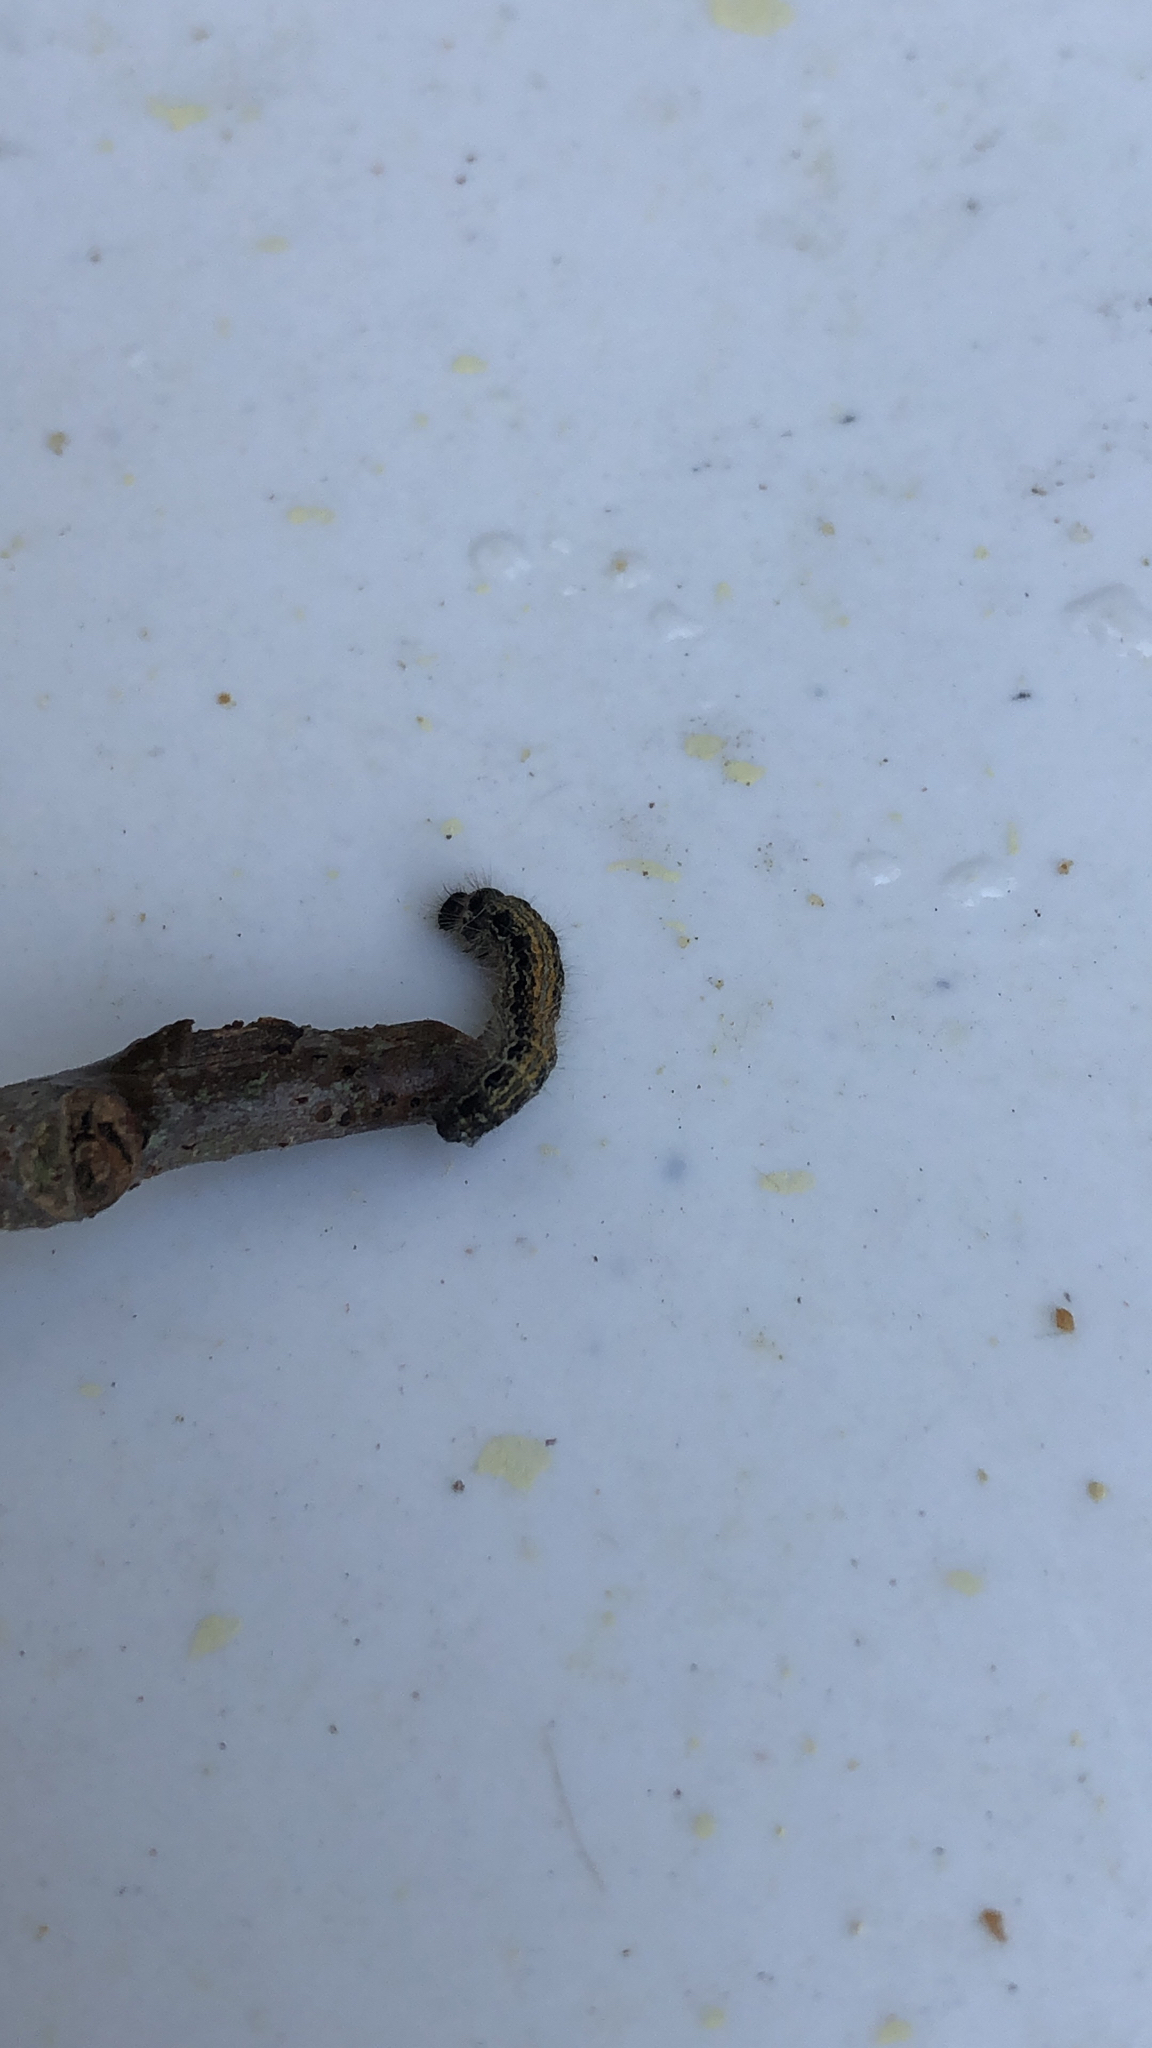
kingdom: Animalia
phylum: Arthropoda
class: Insecta
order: Lepidoptera
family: Lasiocampidae
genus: Malacosoma
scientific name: Malacosoma americana
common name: Eastern tent caterpillar moth
